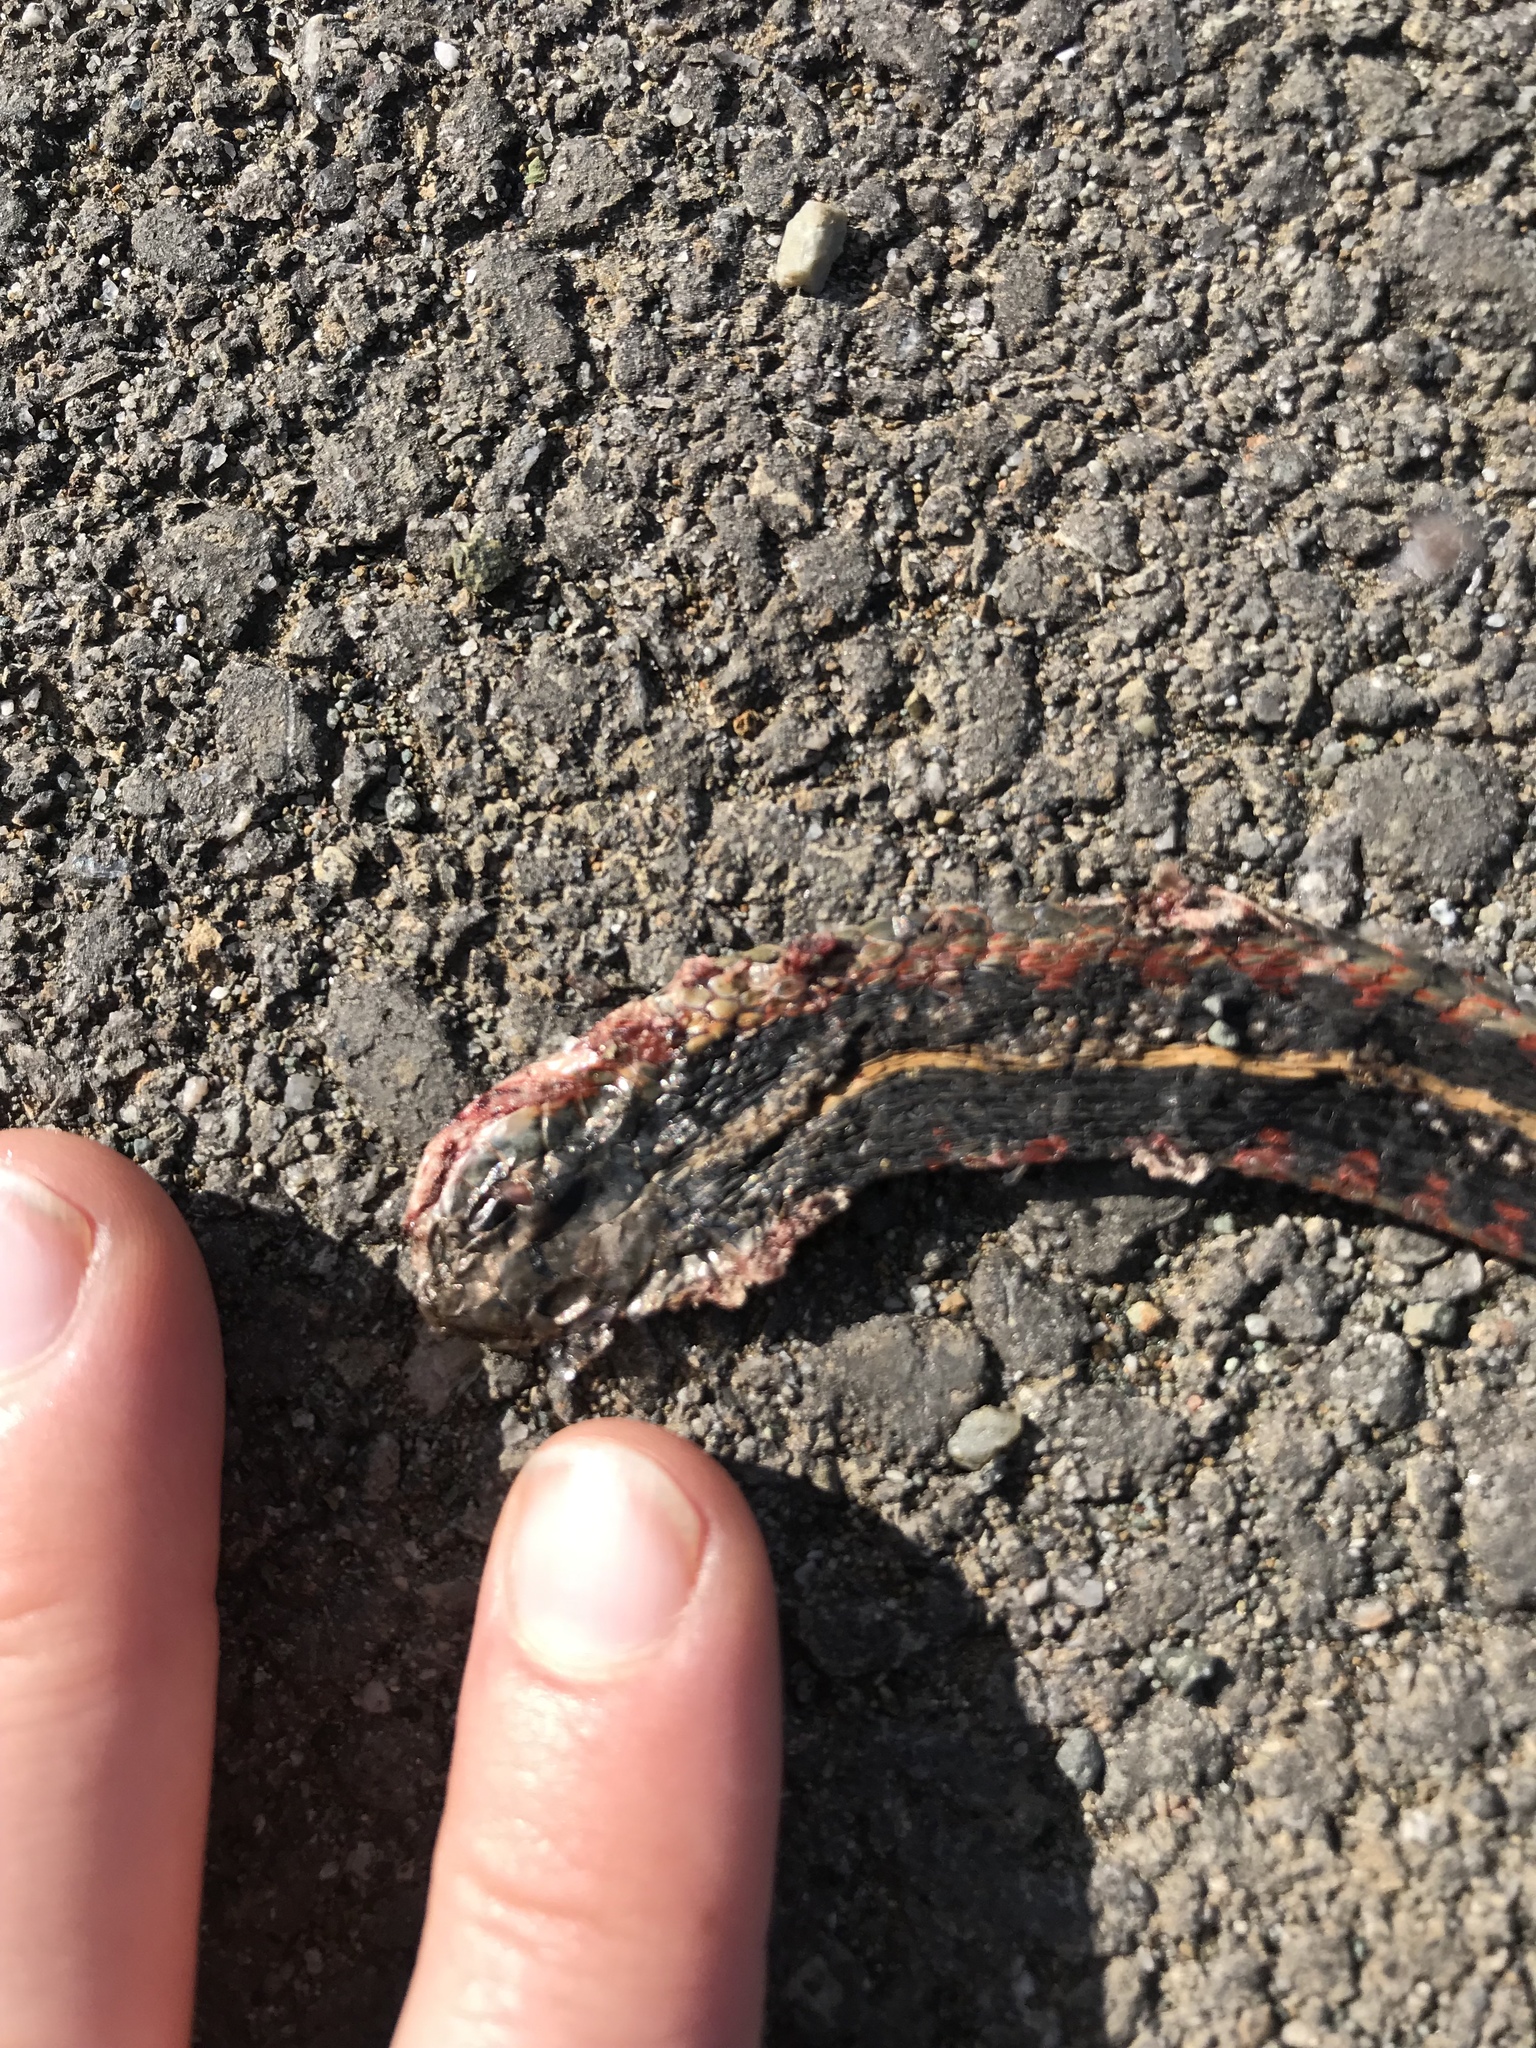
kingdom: Animalia
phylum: Chordata
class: Squamata
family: Colubridae
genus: Thamnophis
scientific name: Thamnophis sirtalis
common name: Common garter snake
